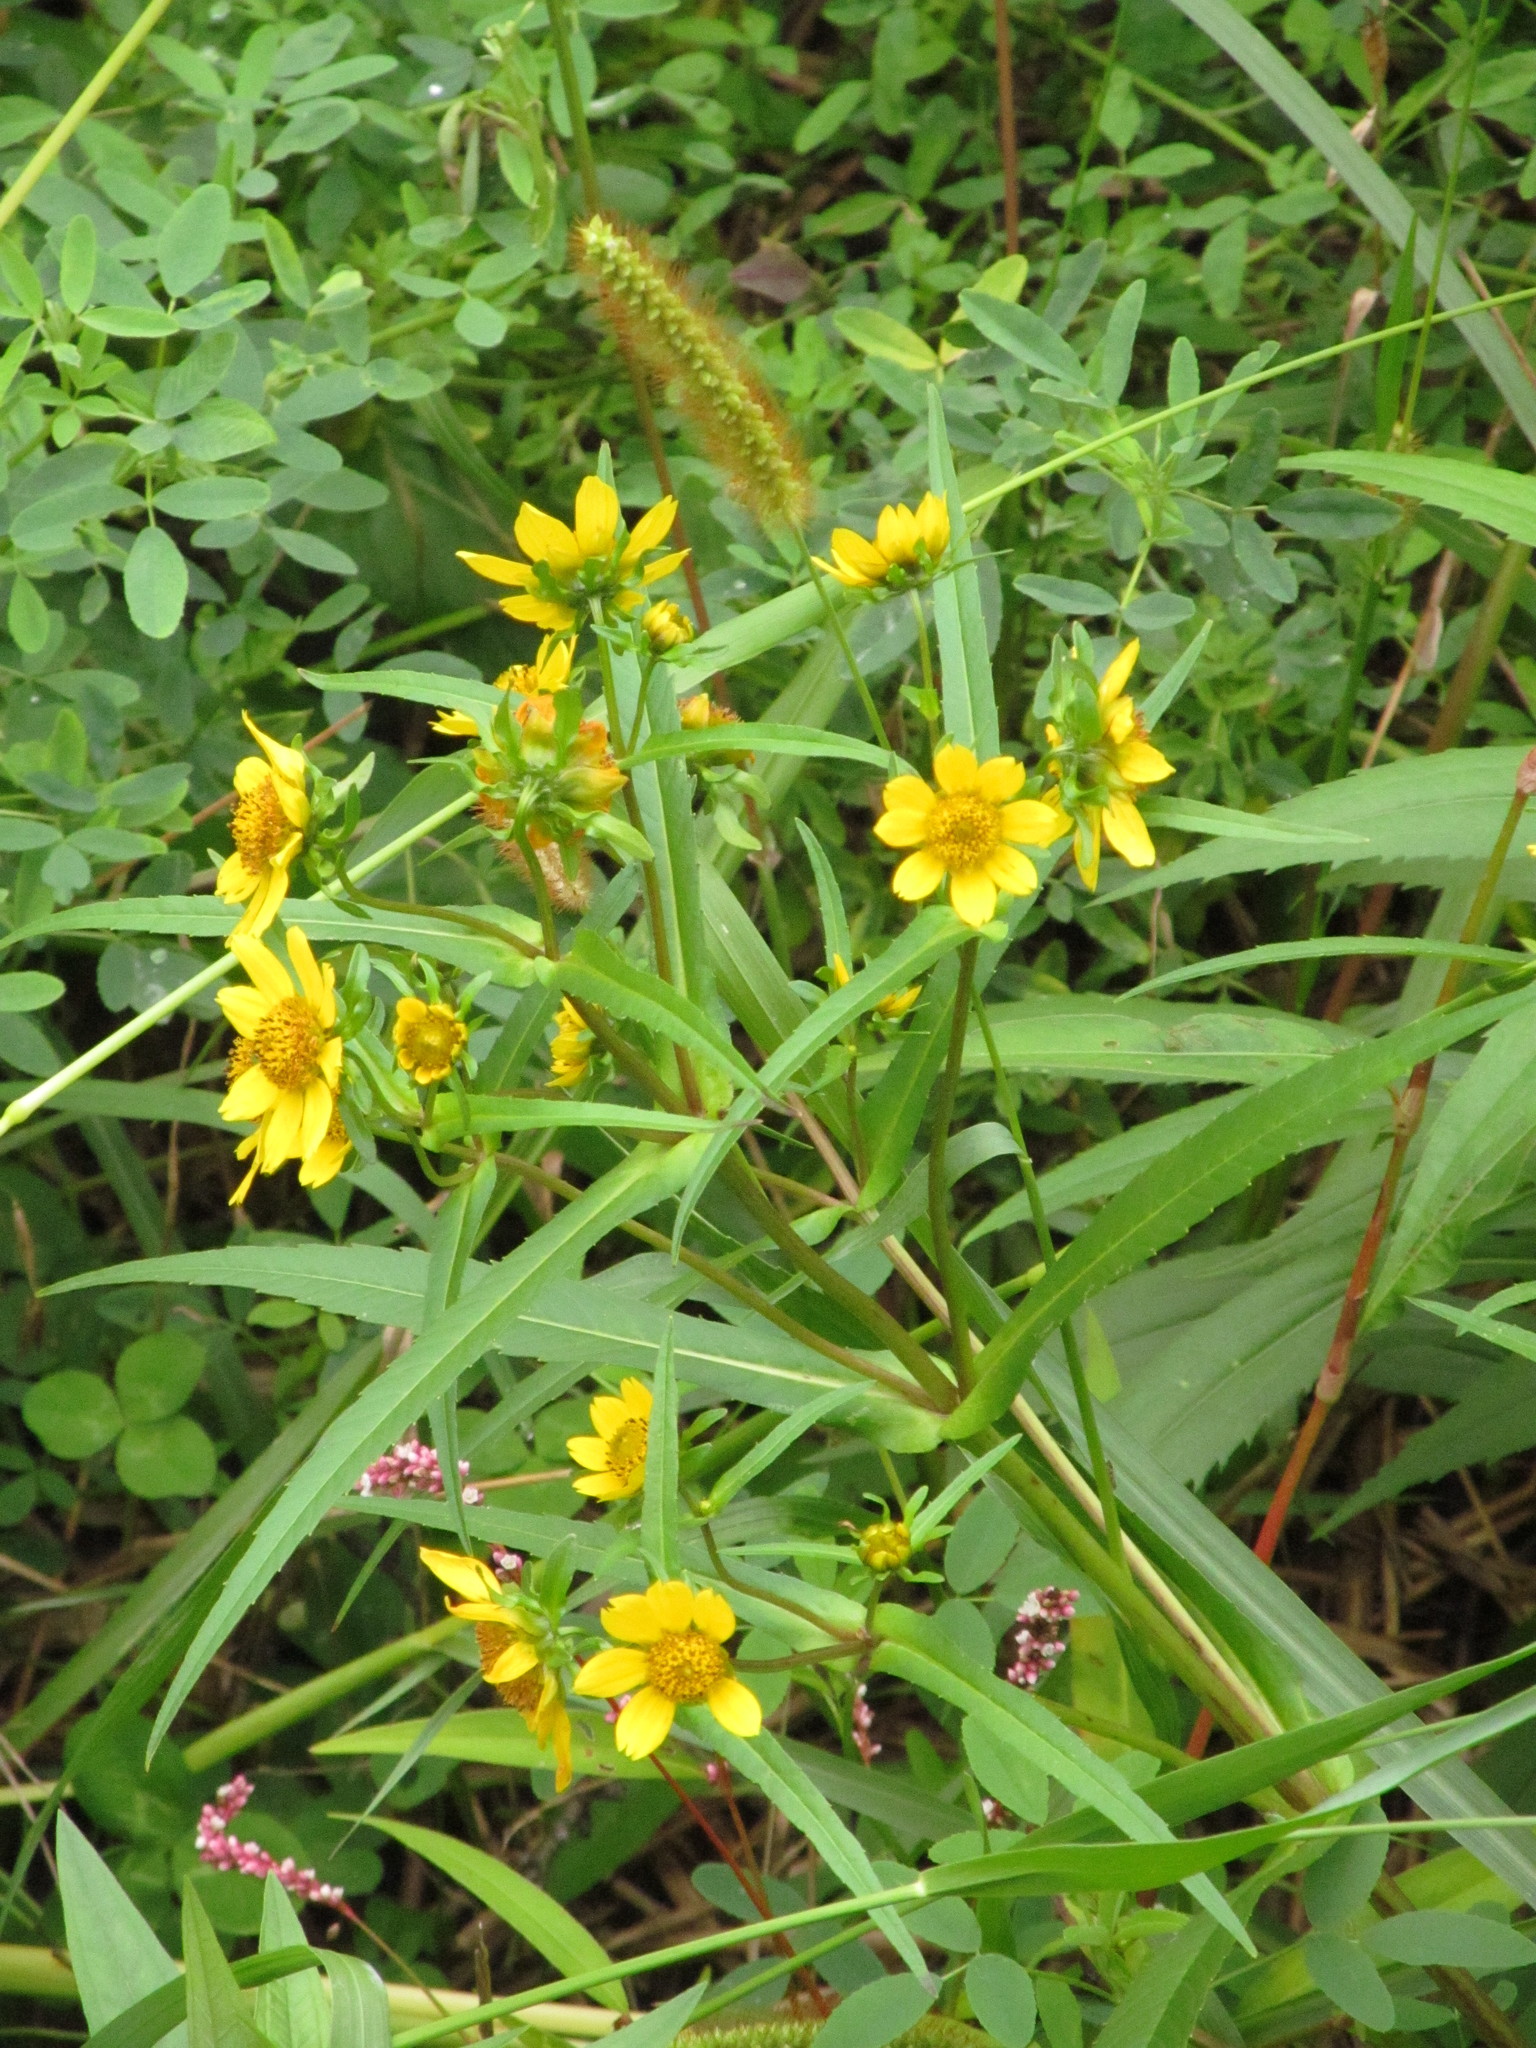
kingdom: Plantae
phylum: Tracheophyta
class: Magnoliopsida
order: Asterales
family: Asteraceae
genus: Bidens
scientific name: Bidens cernua
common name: Nodding bur-marigold
